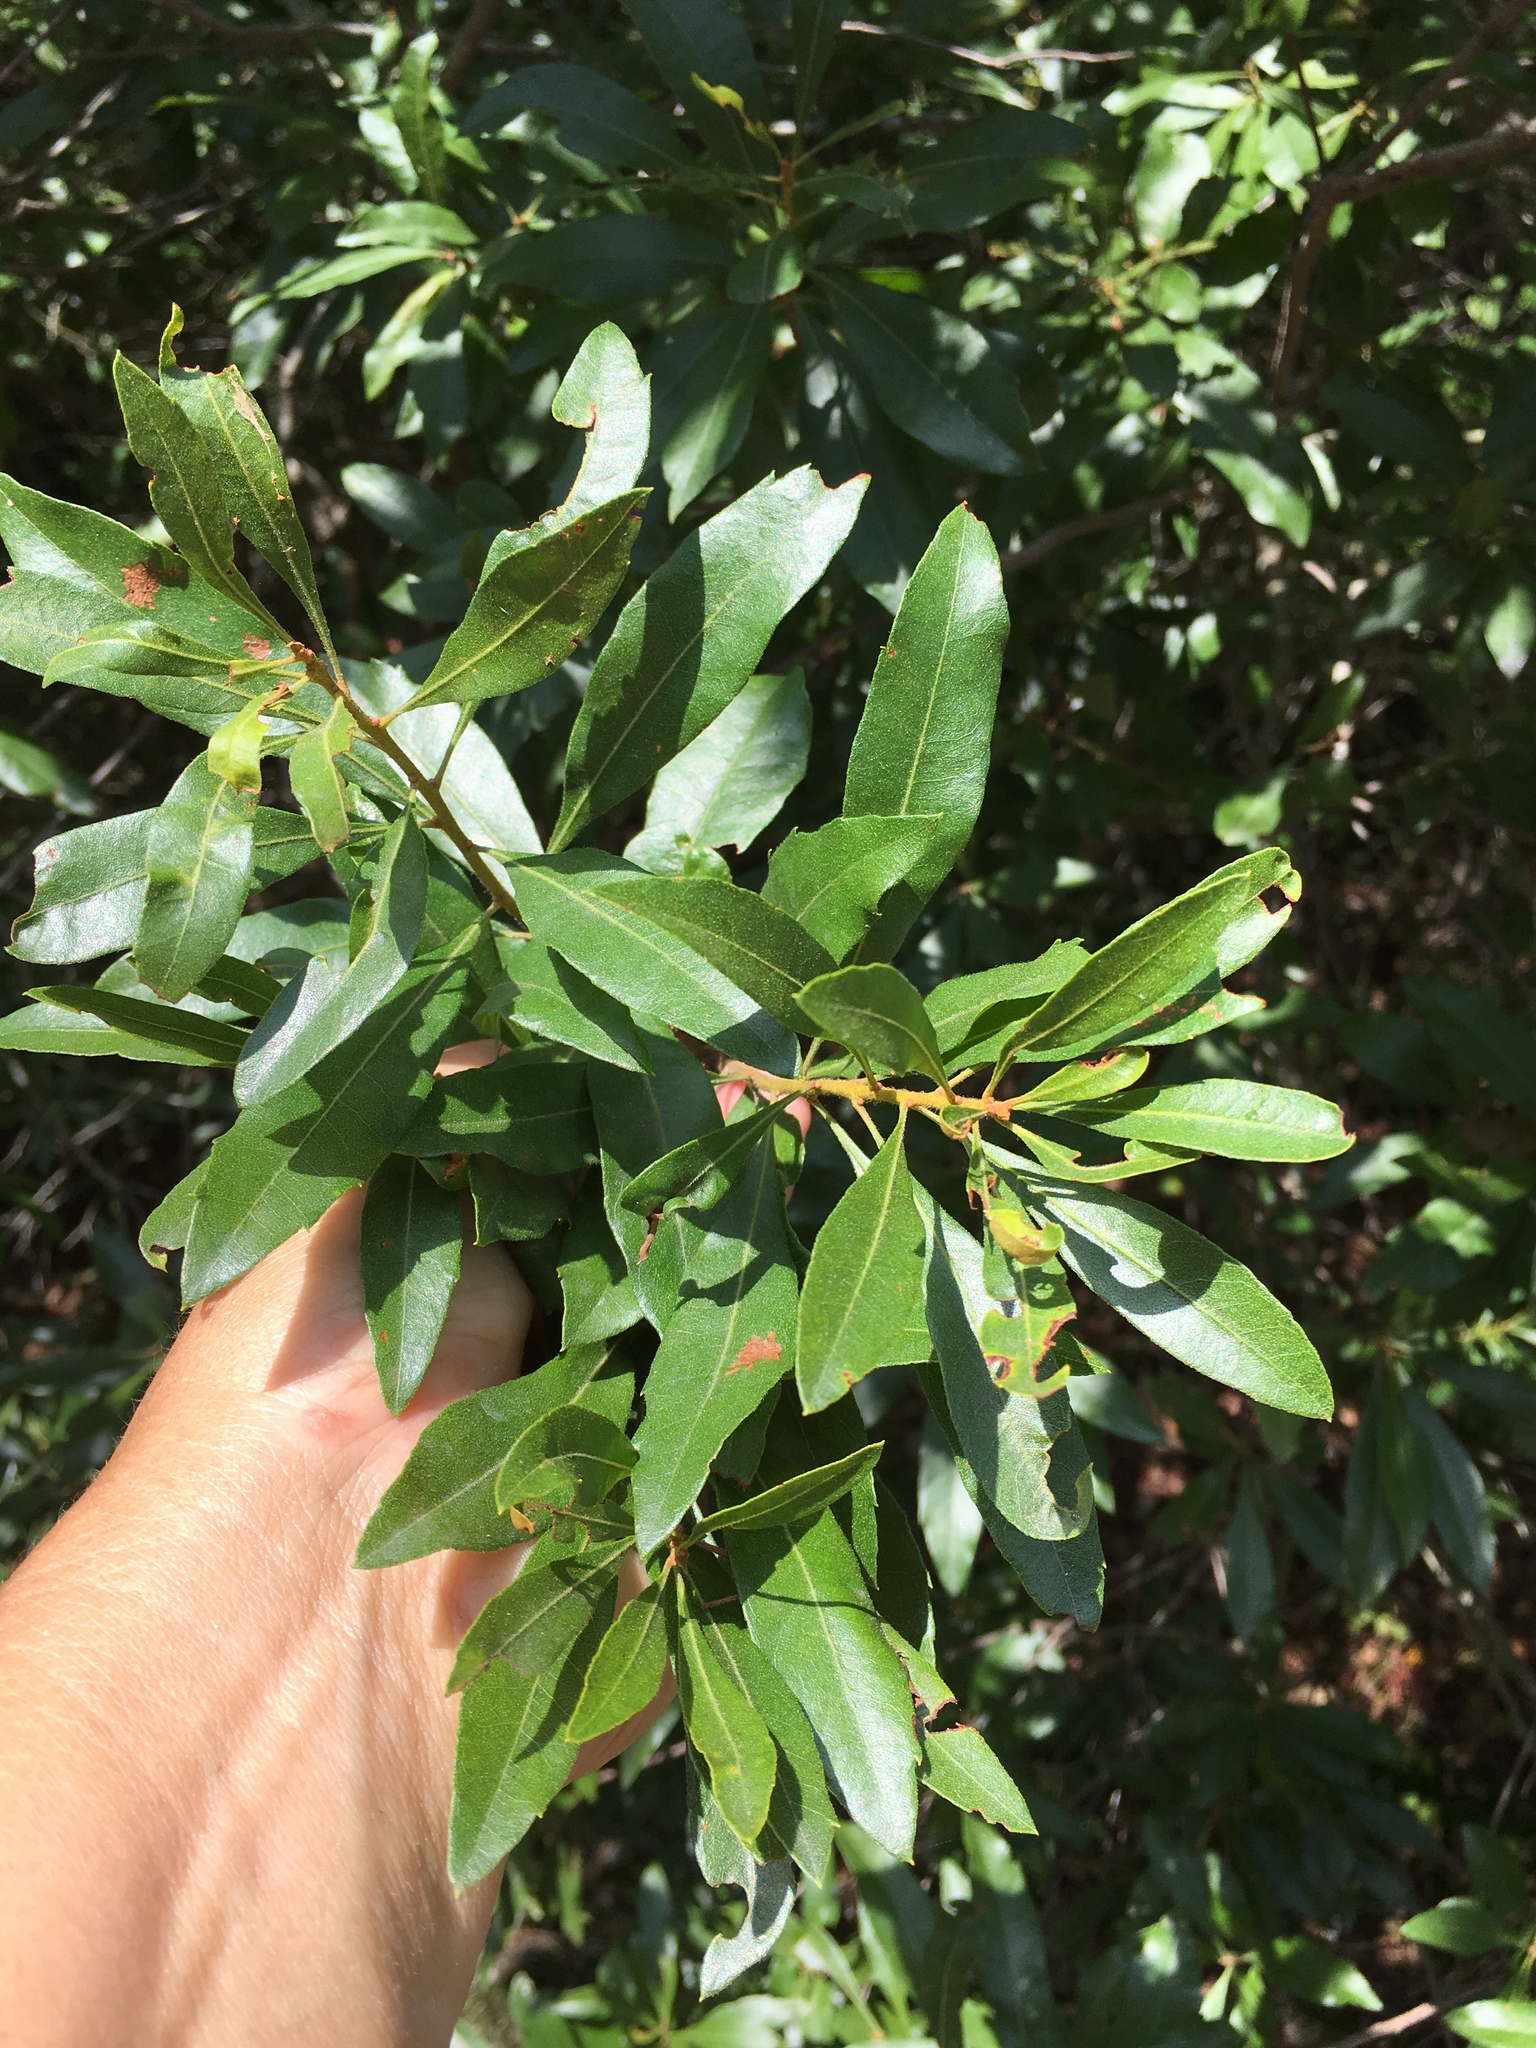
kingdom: Plantae
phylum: Tracheophyta
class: Magnoliopsida
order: Fagales
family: Myricaceae
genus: Morella
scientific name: Morella cerifera
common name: Wax myrtle
